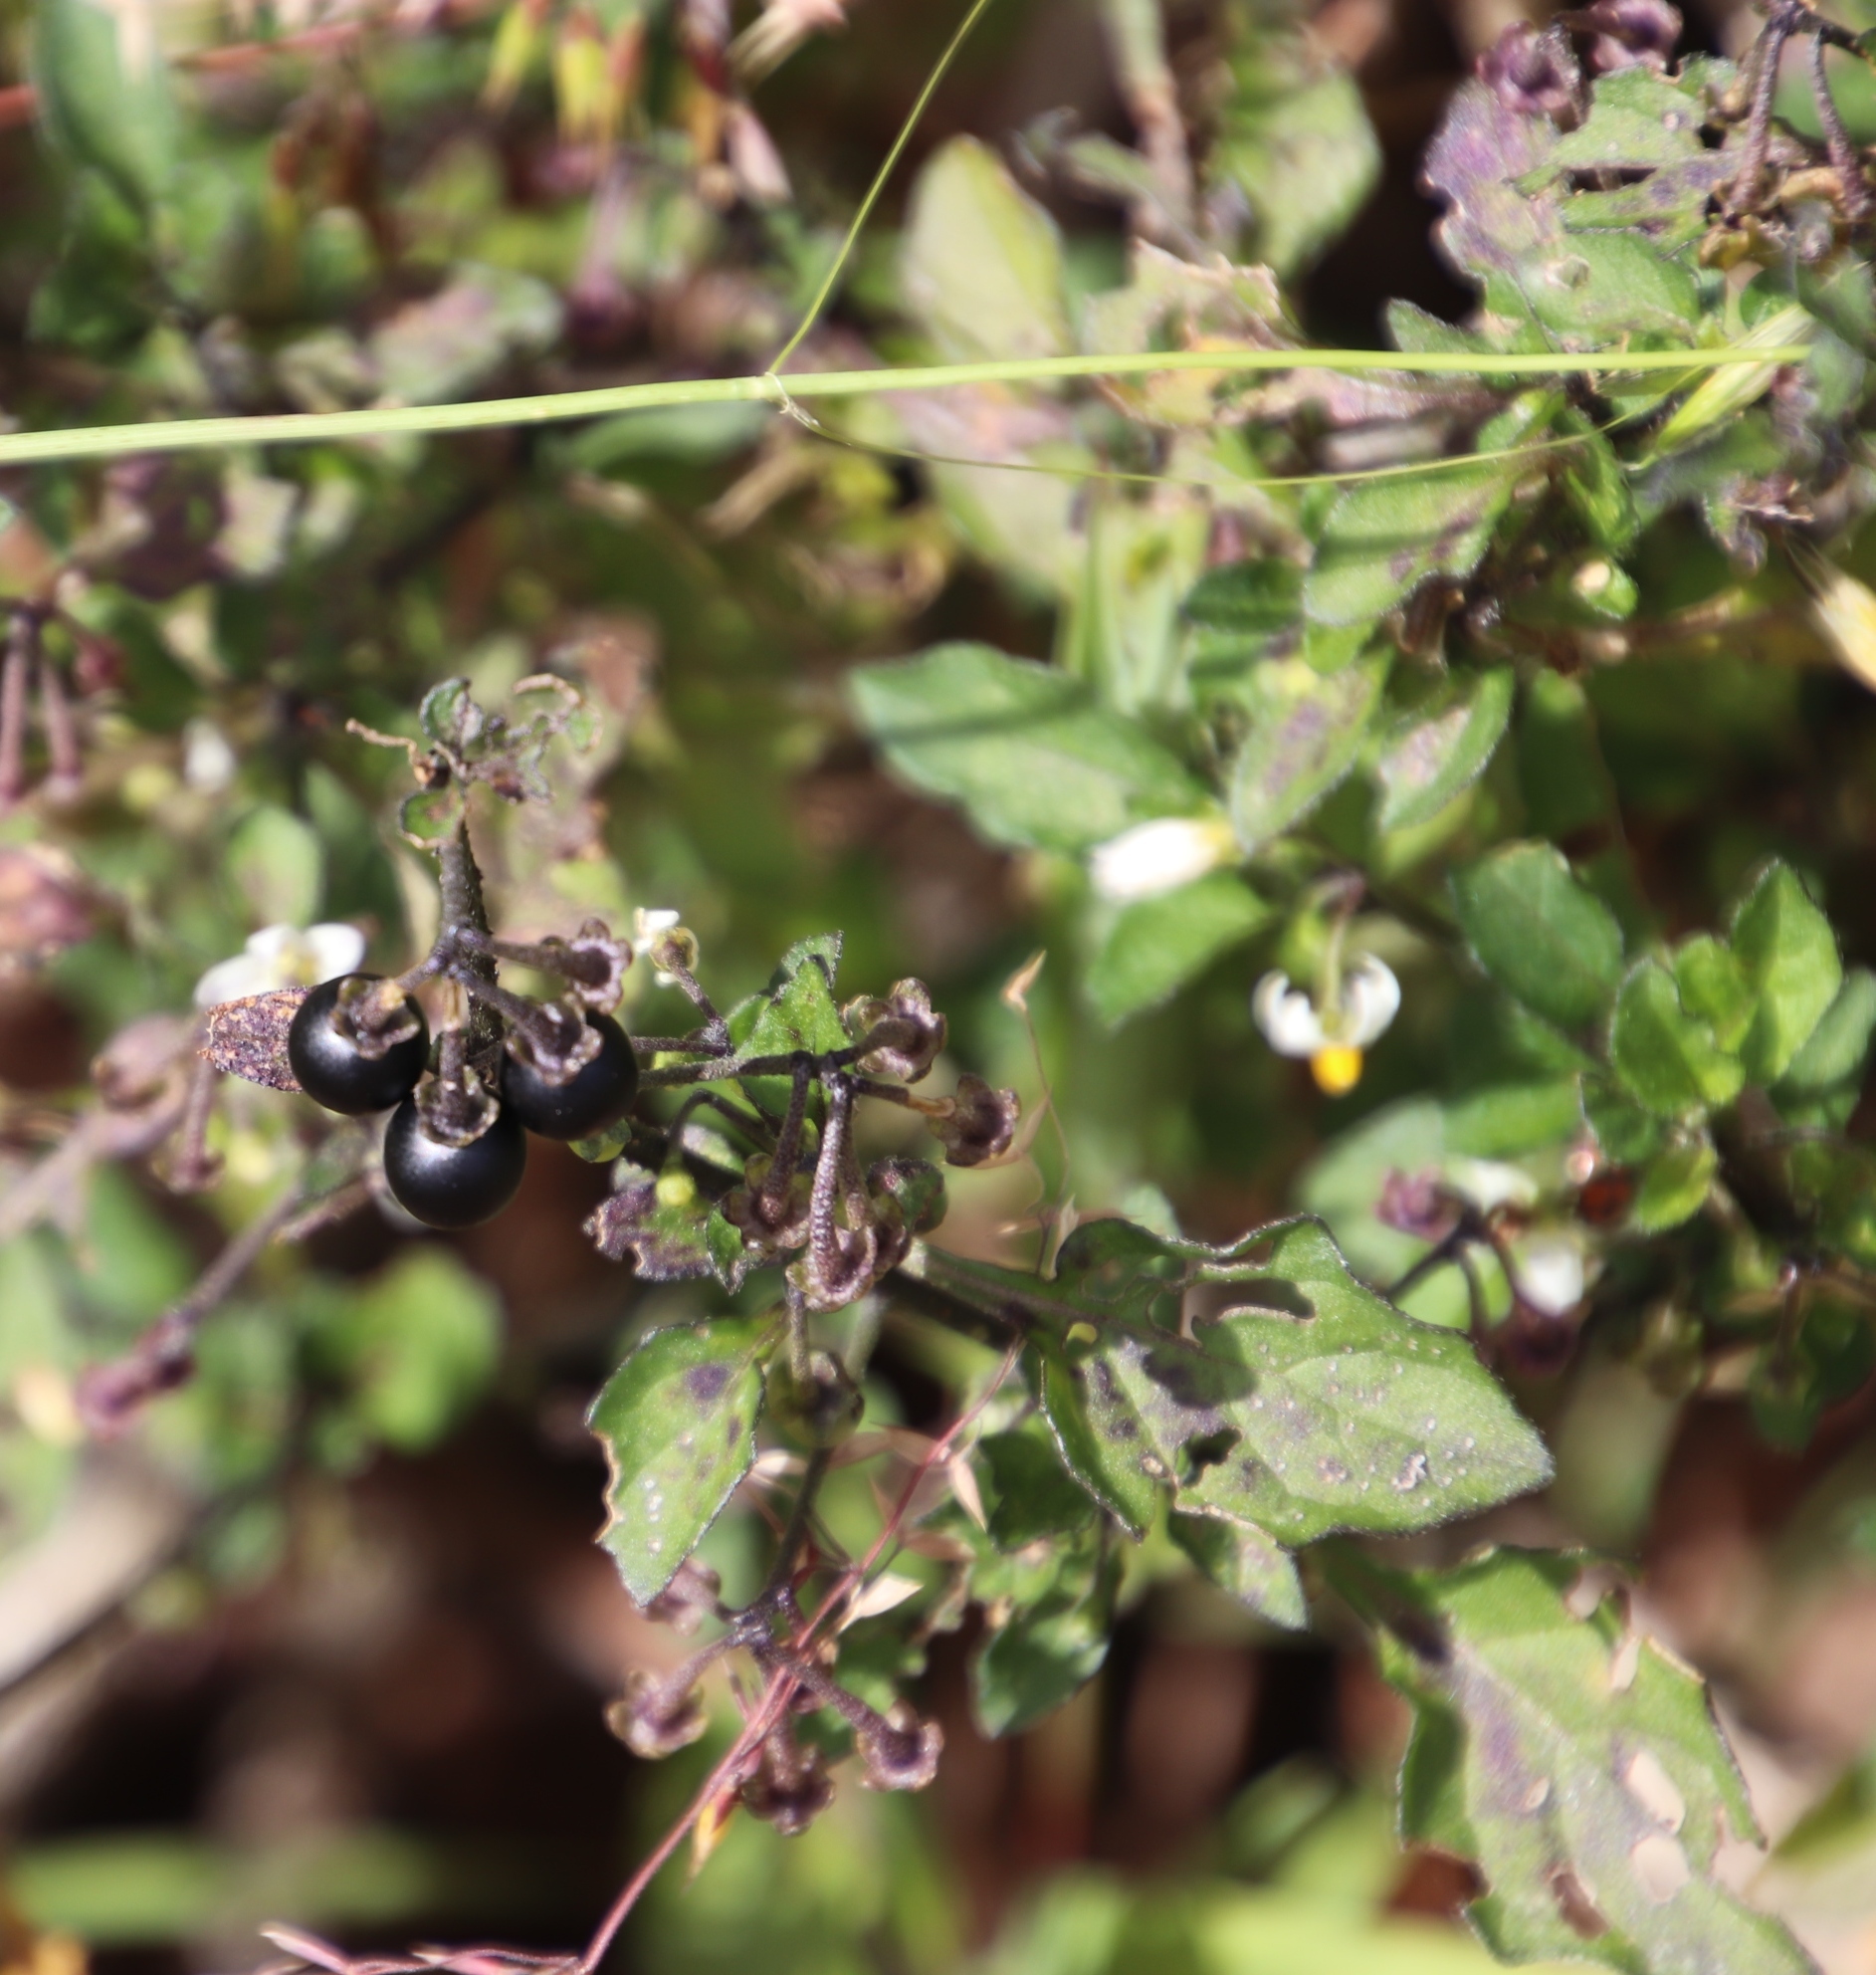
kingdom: Plantae
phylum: Tracheophyta
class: Magnoliopsida
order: Solanales
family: Solanaceae
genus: Solanum
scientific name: Solanum nigrum
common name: Black nightshade
